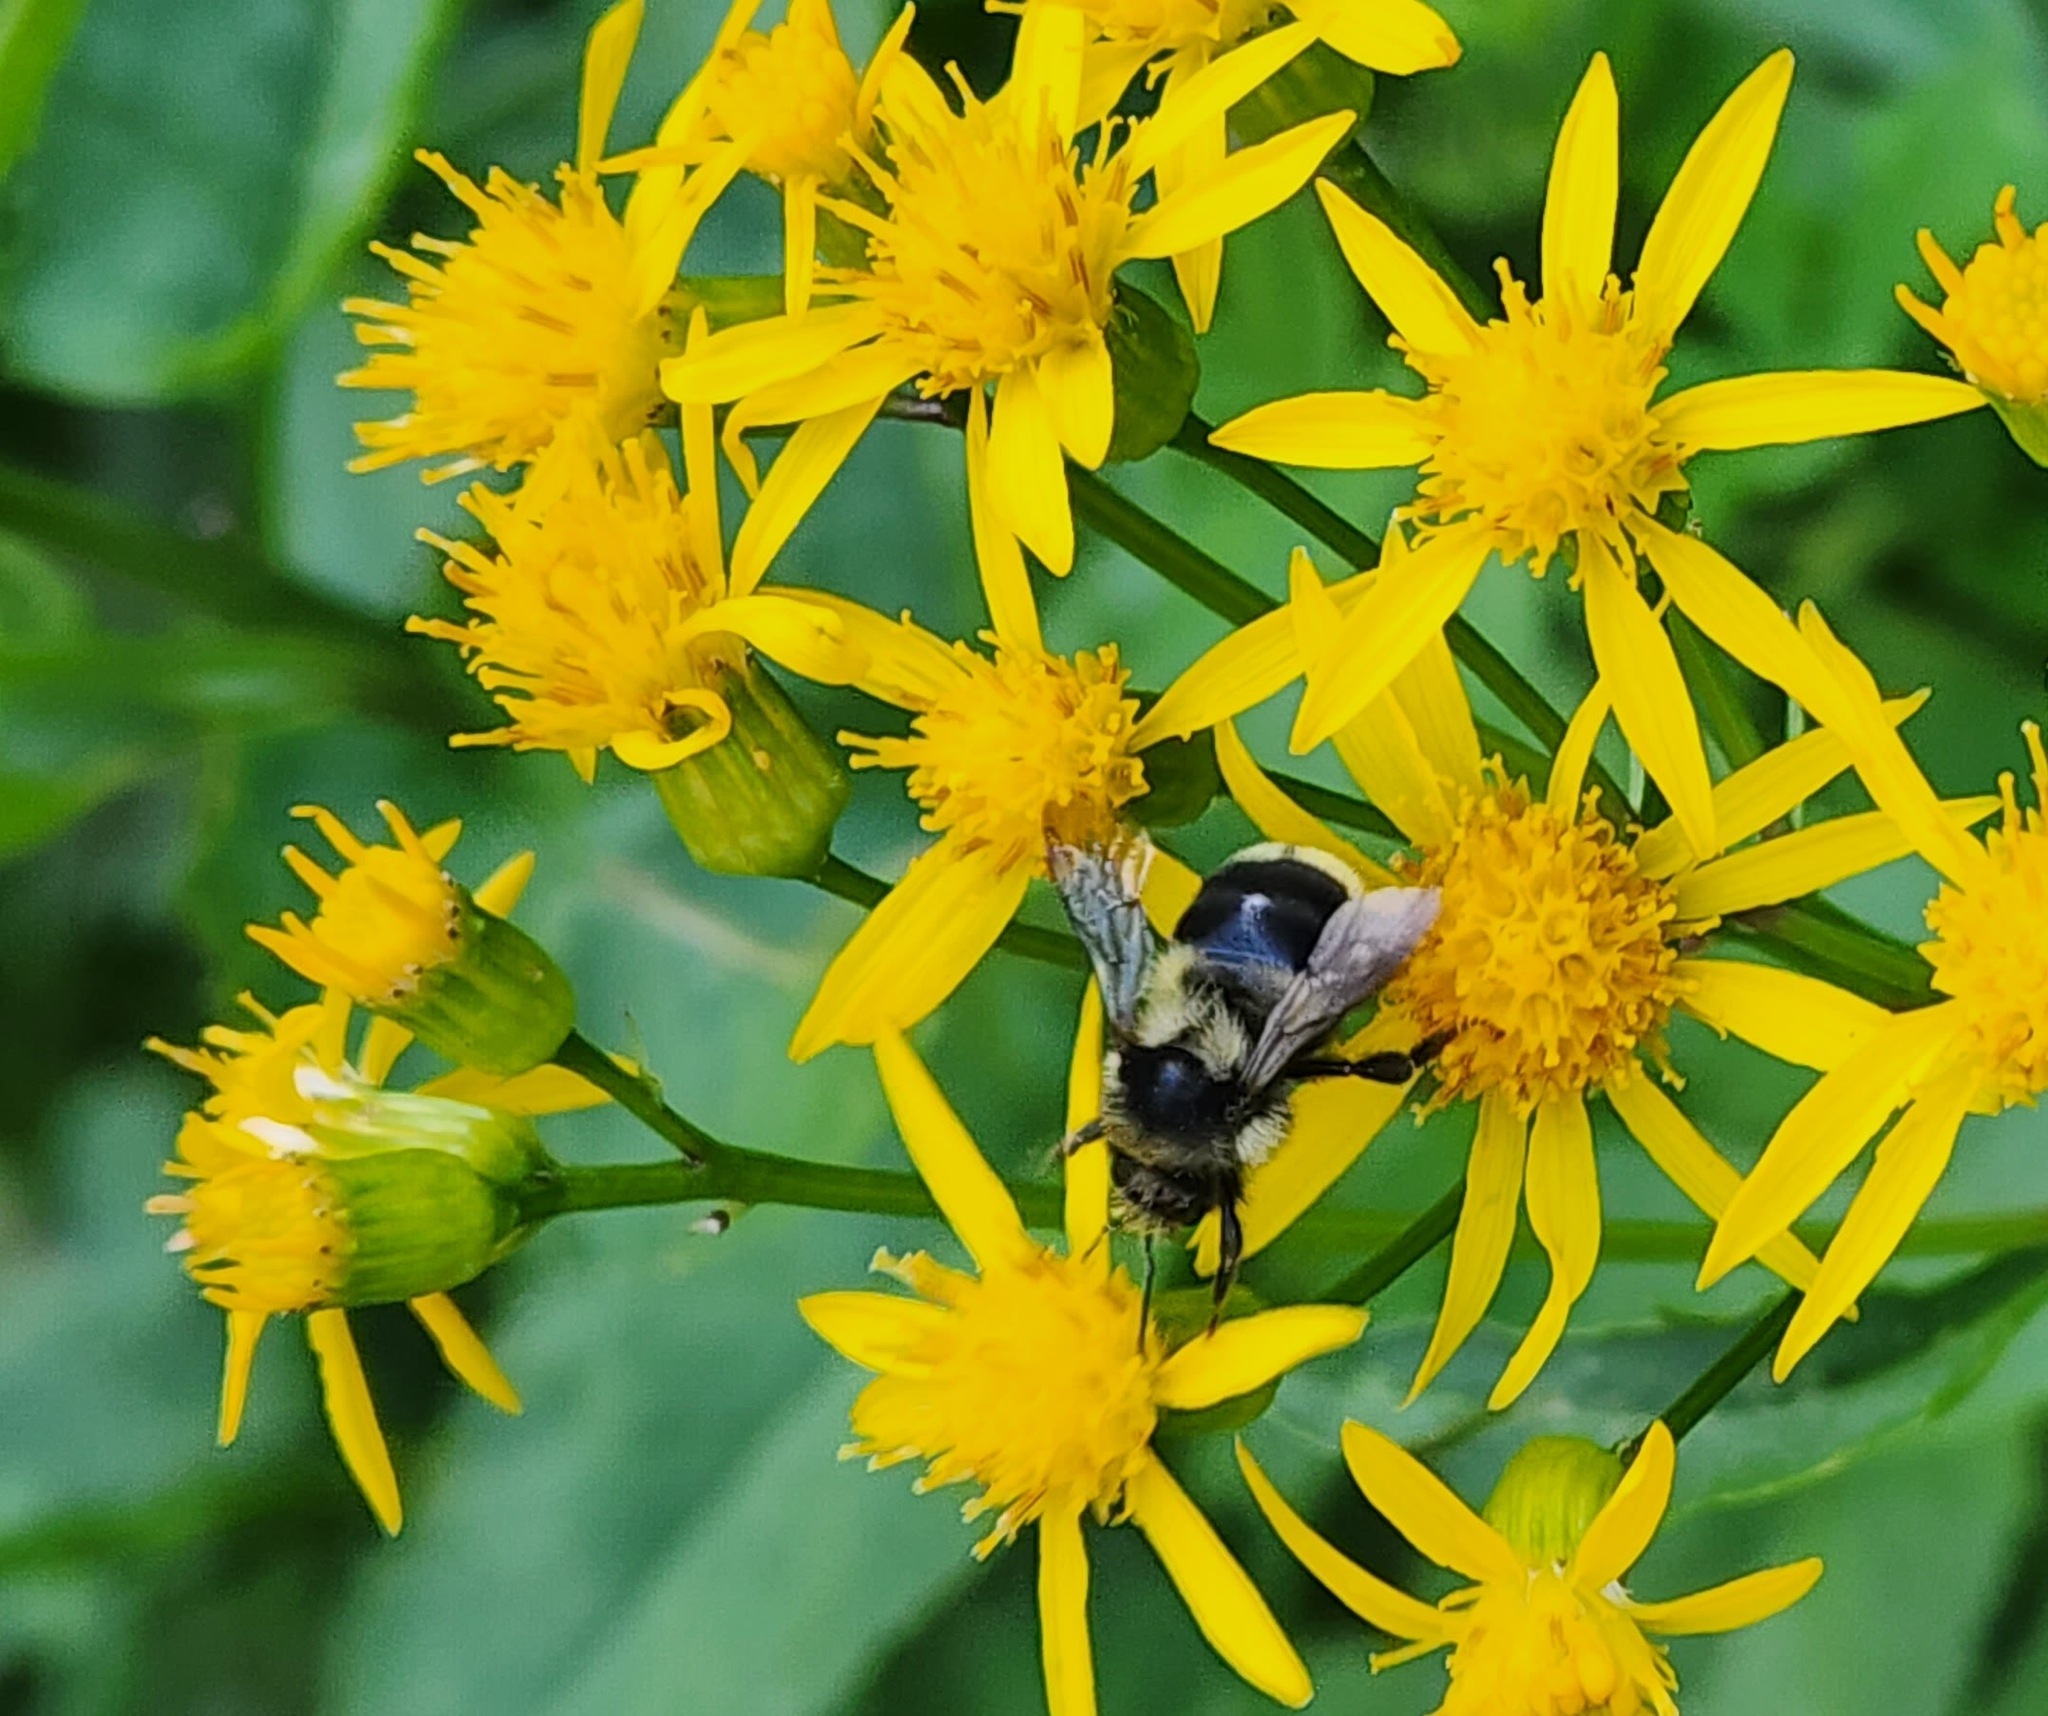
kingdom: Animalia
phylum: Arthropoda
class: Insecta
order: Hymenoptera
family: Apidae
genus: Bombus
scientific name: Bombus vancouverensis
